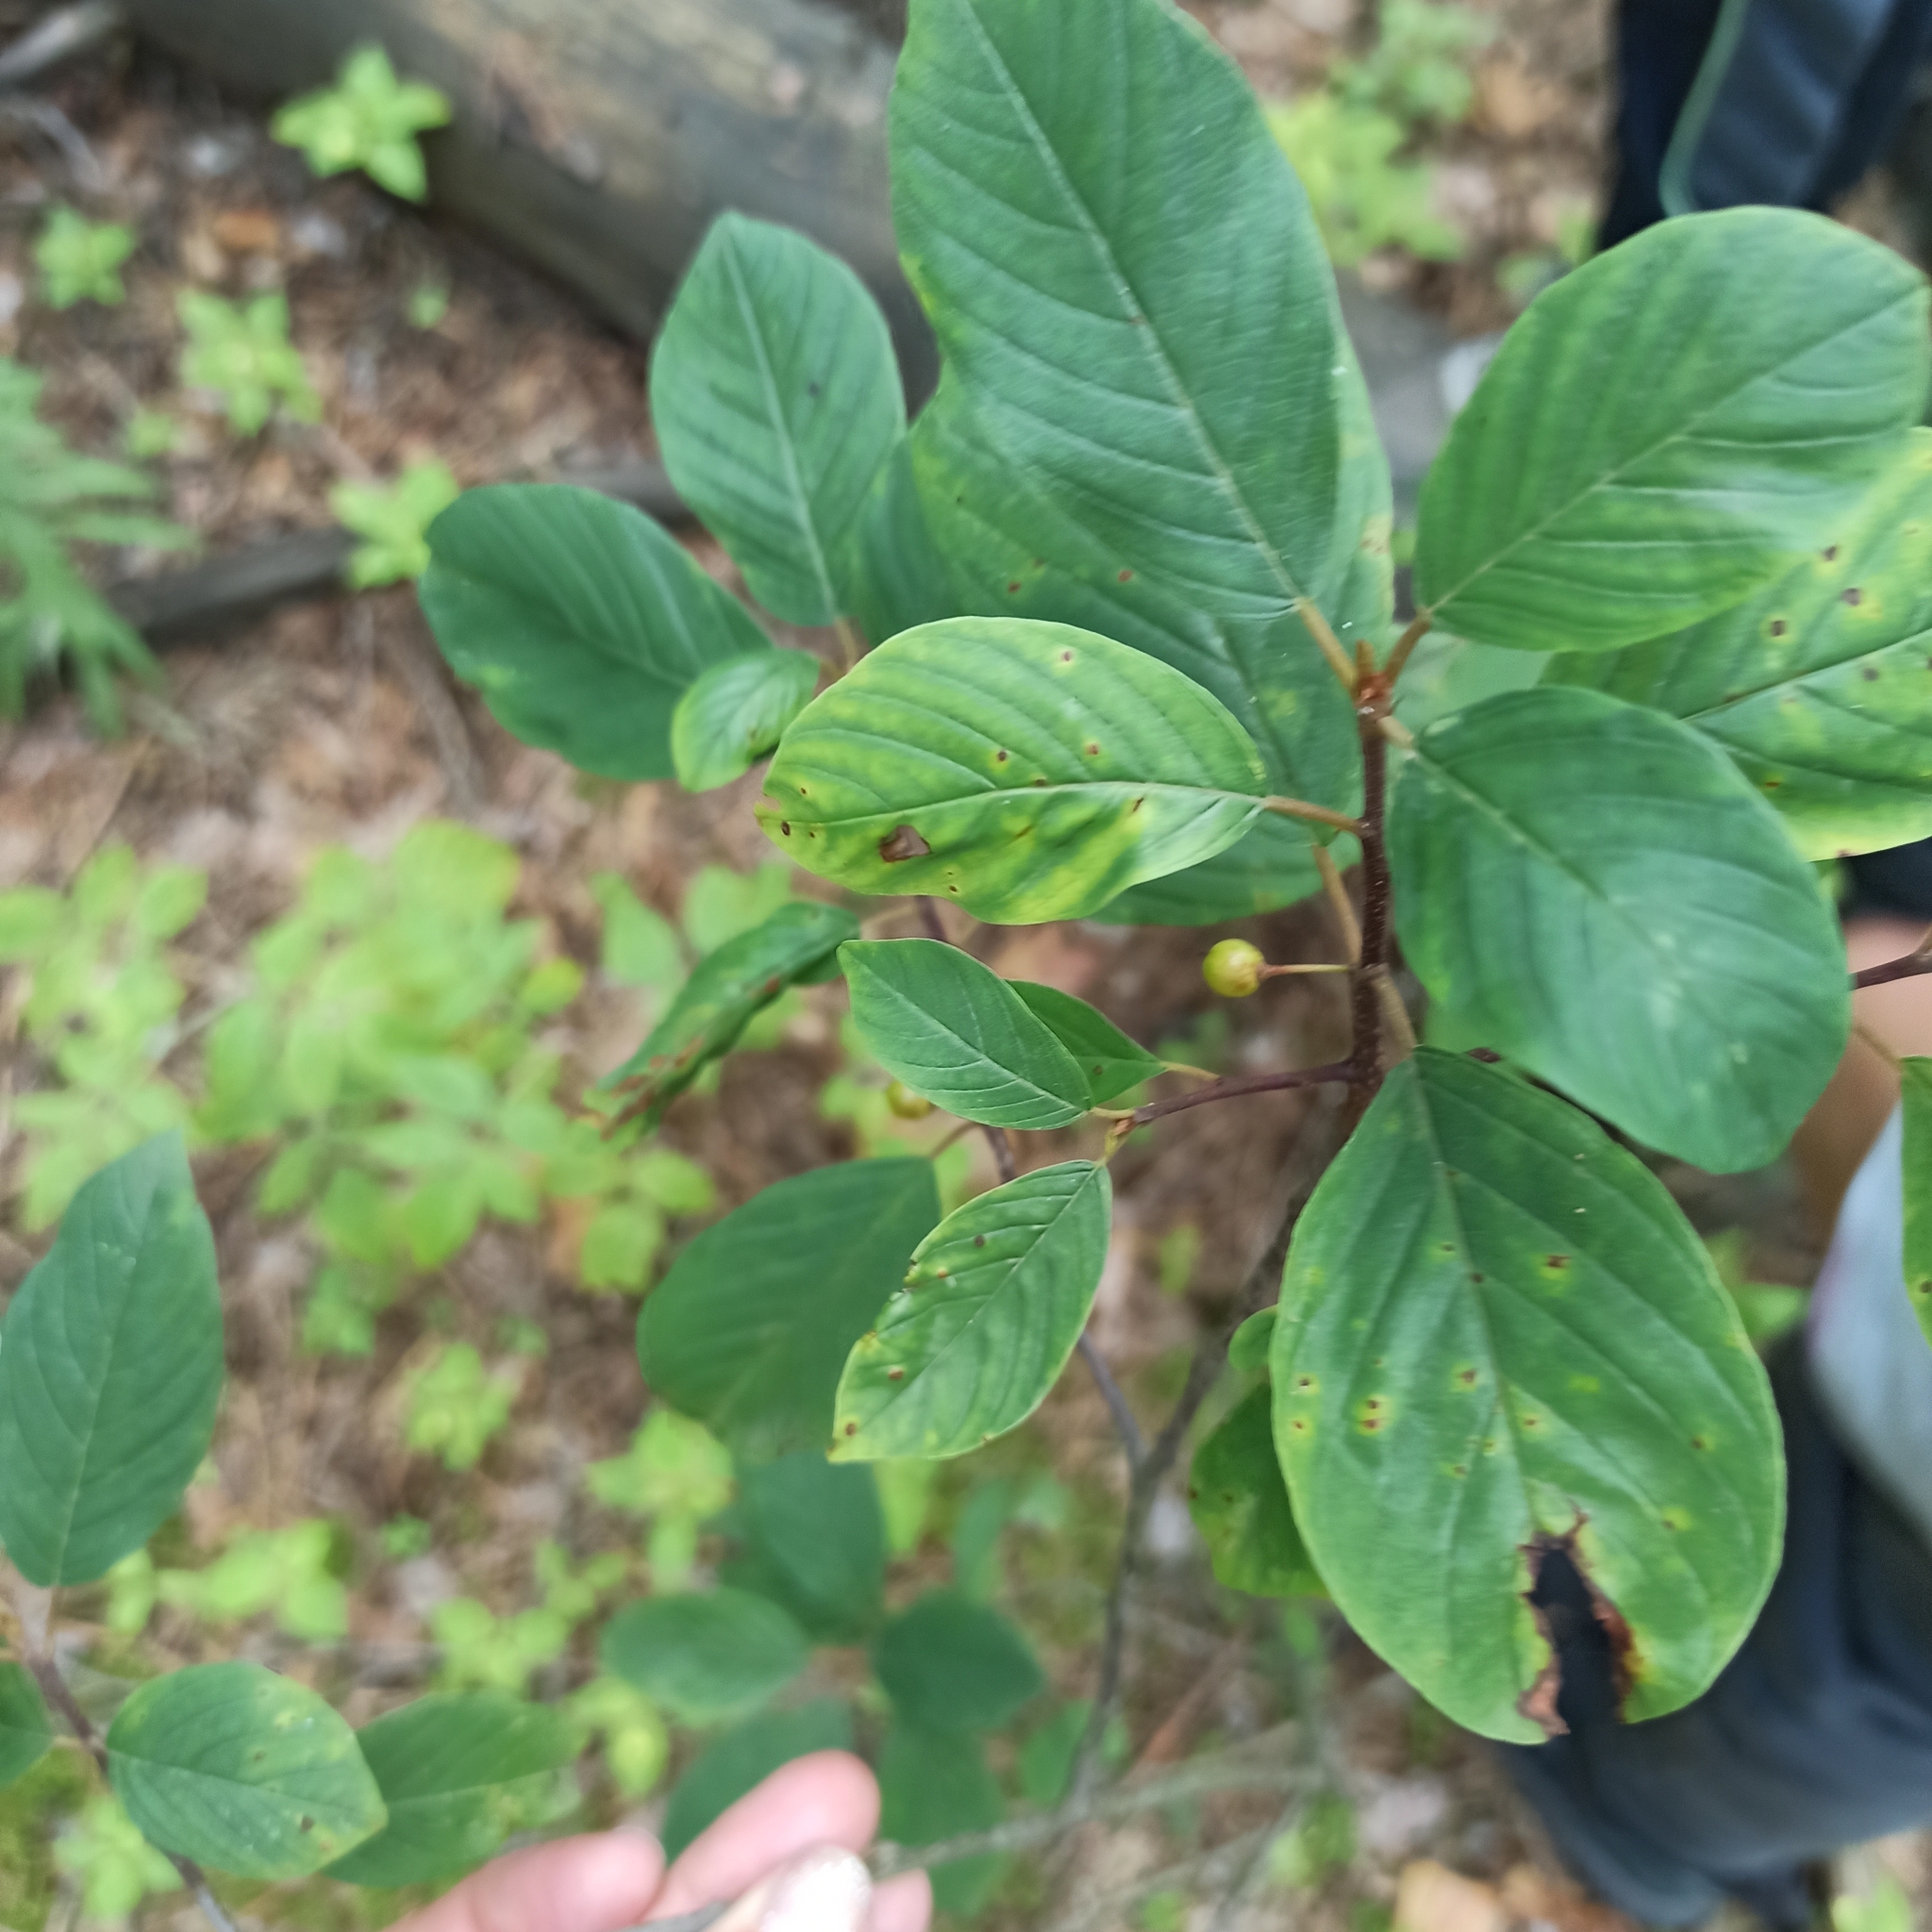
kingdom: Plantae
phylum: Tracheophyta
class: Magnoliopsida
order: Rosales
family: Rhamnaceae
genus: Frangula
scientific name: Frangula alnus
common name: Alder buckthorn
